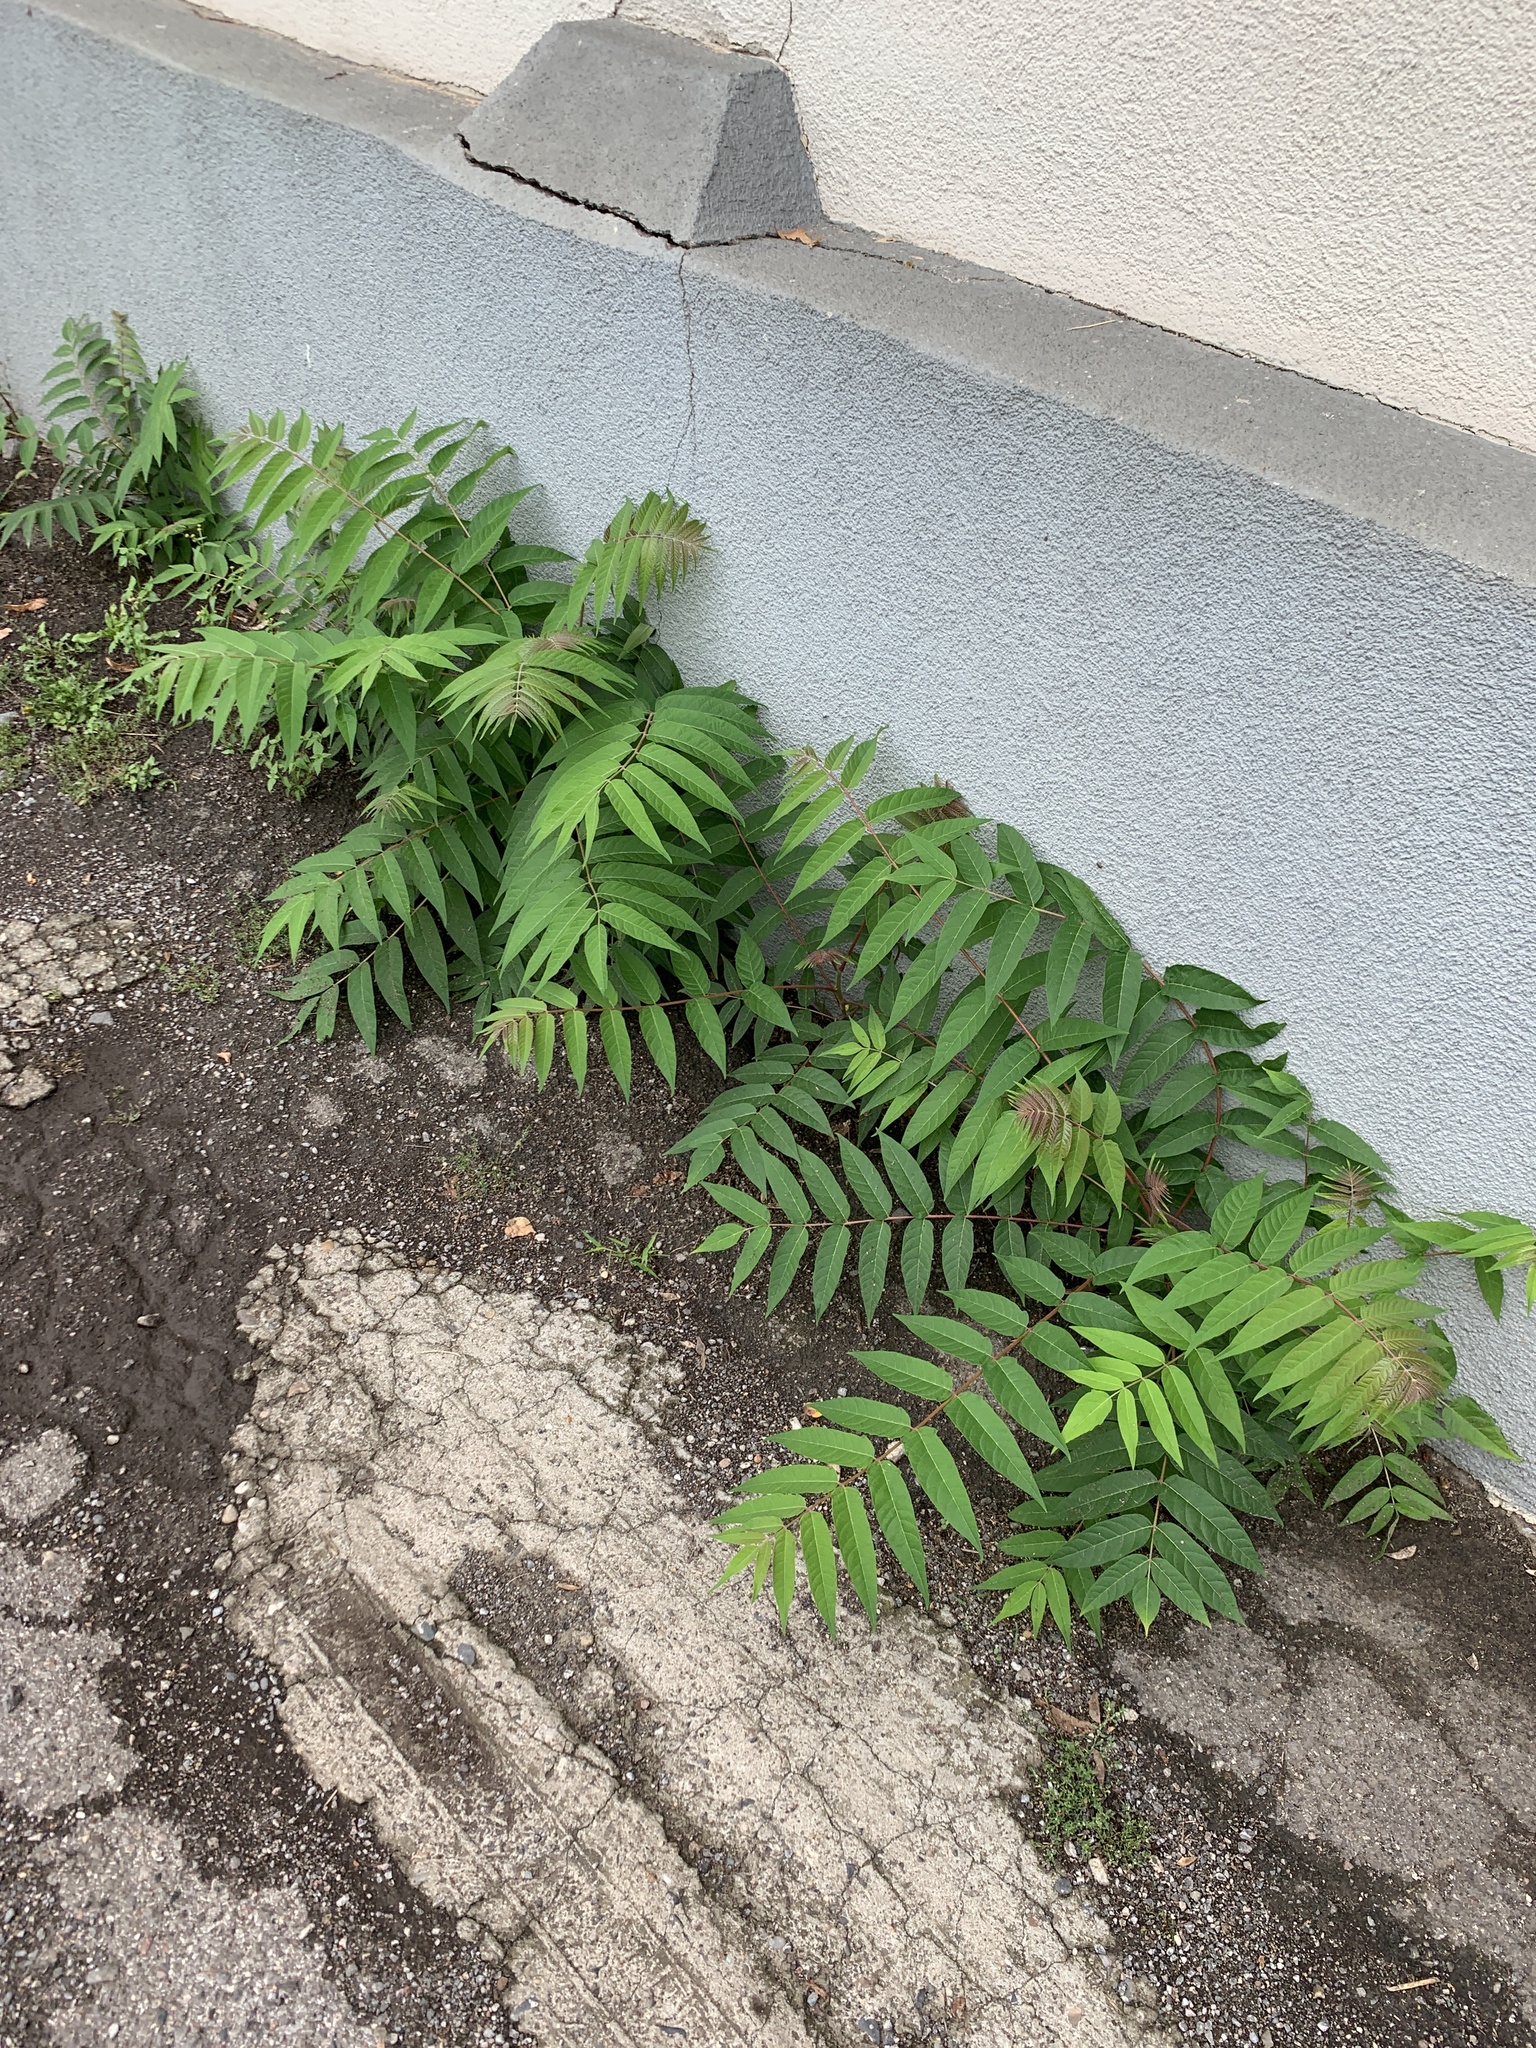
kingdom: Plantae
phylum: Tracheophyta
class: Magnoliopsida
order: Sapindales
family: Simaroubaceae
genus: Ailanthus
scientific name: Ailanthus altissima
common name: Tree-of-heaven
